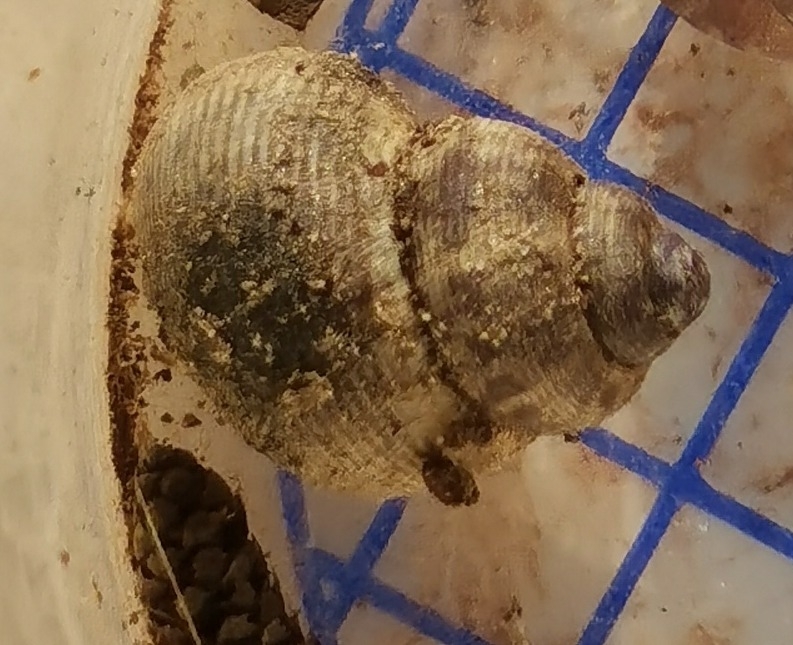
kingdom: Animalia
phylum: Mollusca
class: Gastropoda
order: Littorinimorpha
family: Pomatiidae
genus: Pomatias
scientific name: Pomatias elegans
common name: Red-mouthed snail
